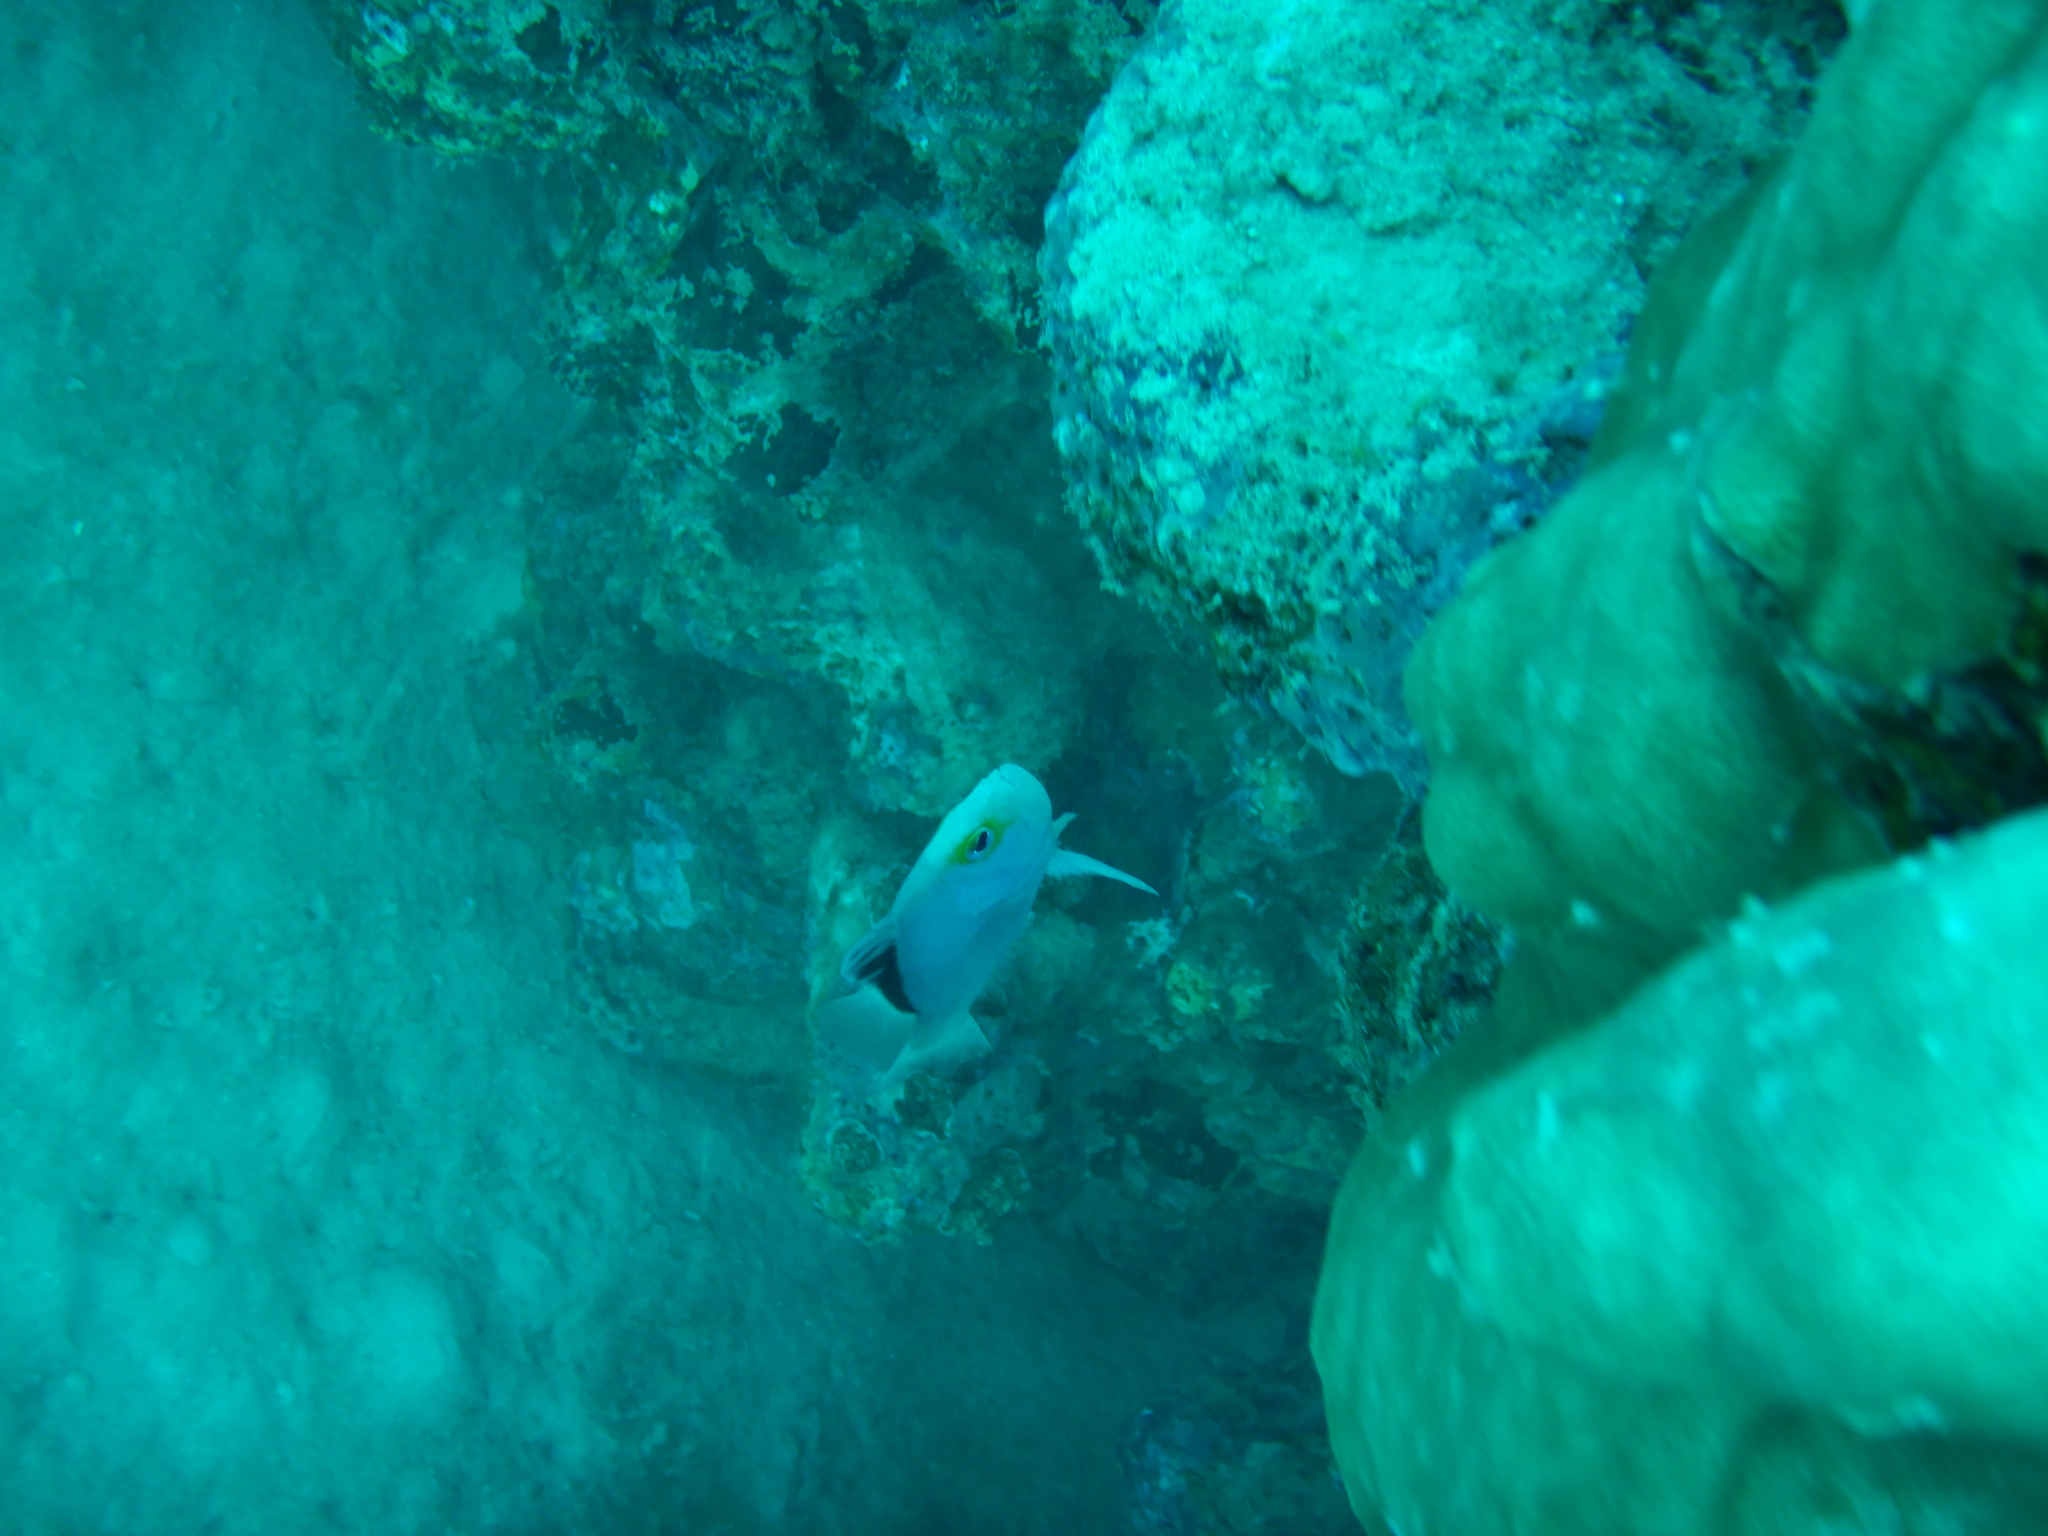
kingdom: Animalia
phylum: Chordata
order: Perciformes
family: Serranidae
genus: Diploprion
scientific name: Diploprion drachi
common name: Yellowface soapfish
